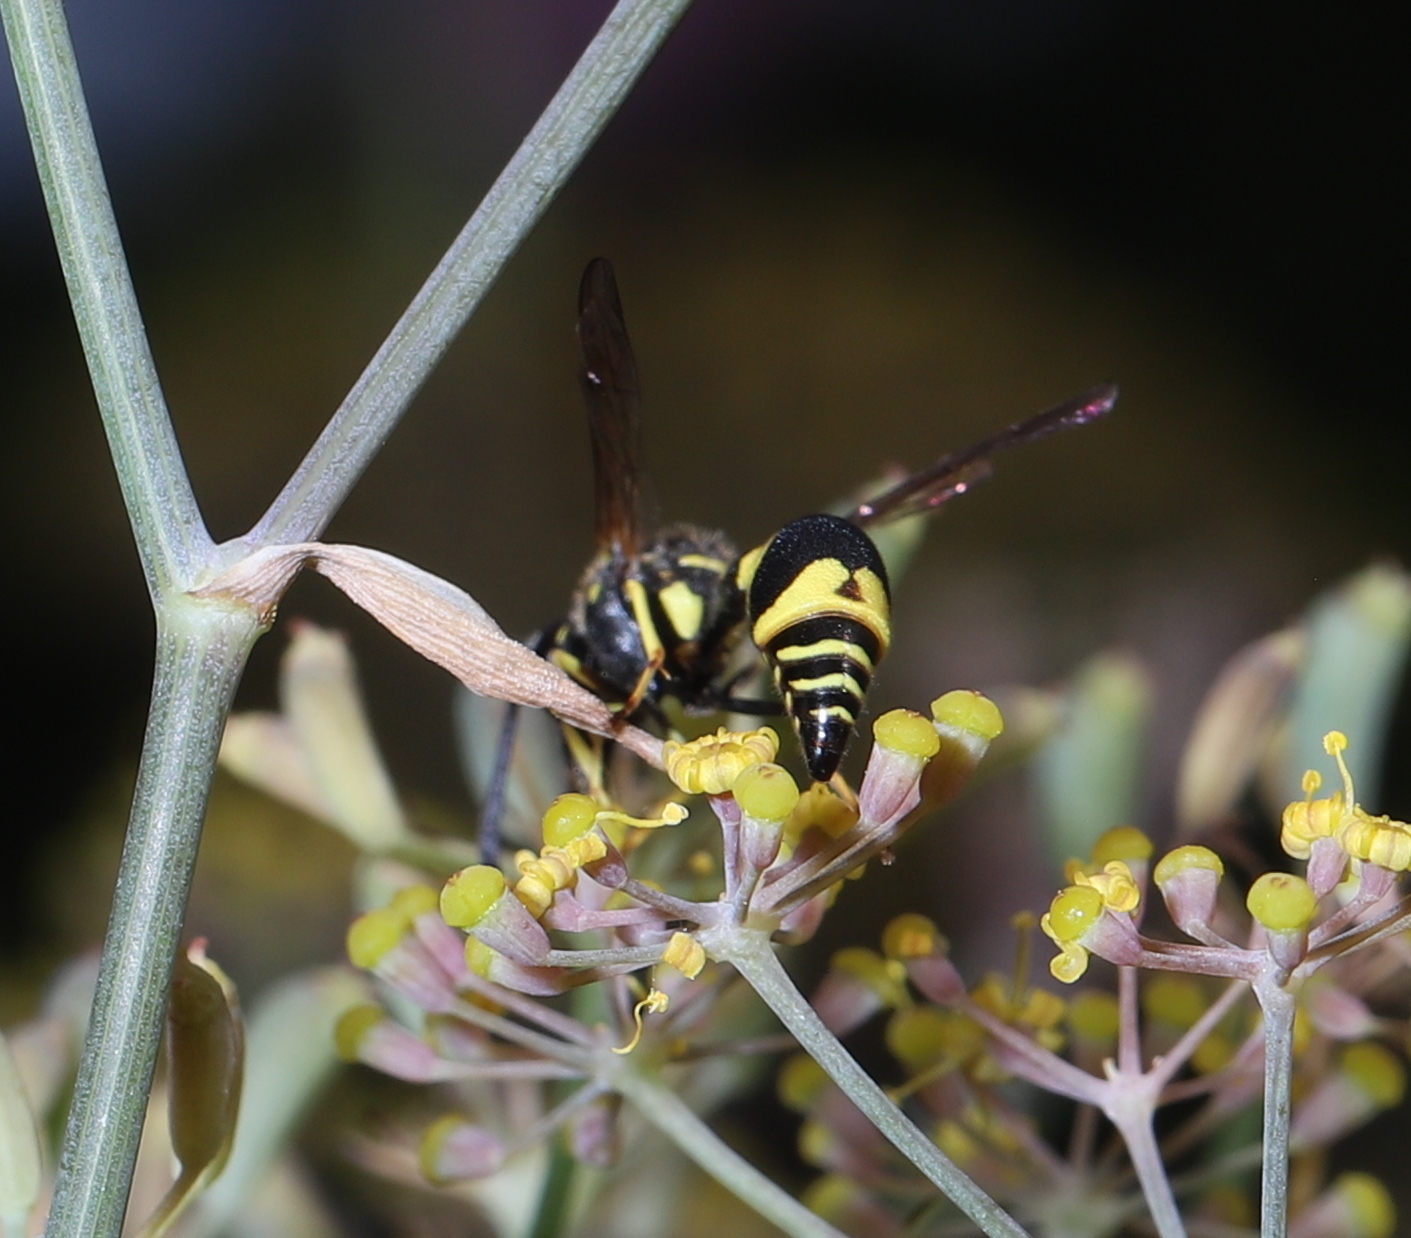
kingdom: Animalia
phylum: Arthropoda
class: Insecta
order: Hymenoptera
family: Vespidae
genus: Eumenes
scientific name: Eumenes mediterraneus
